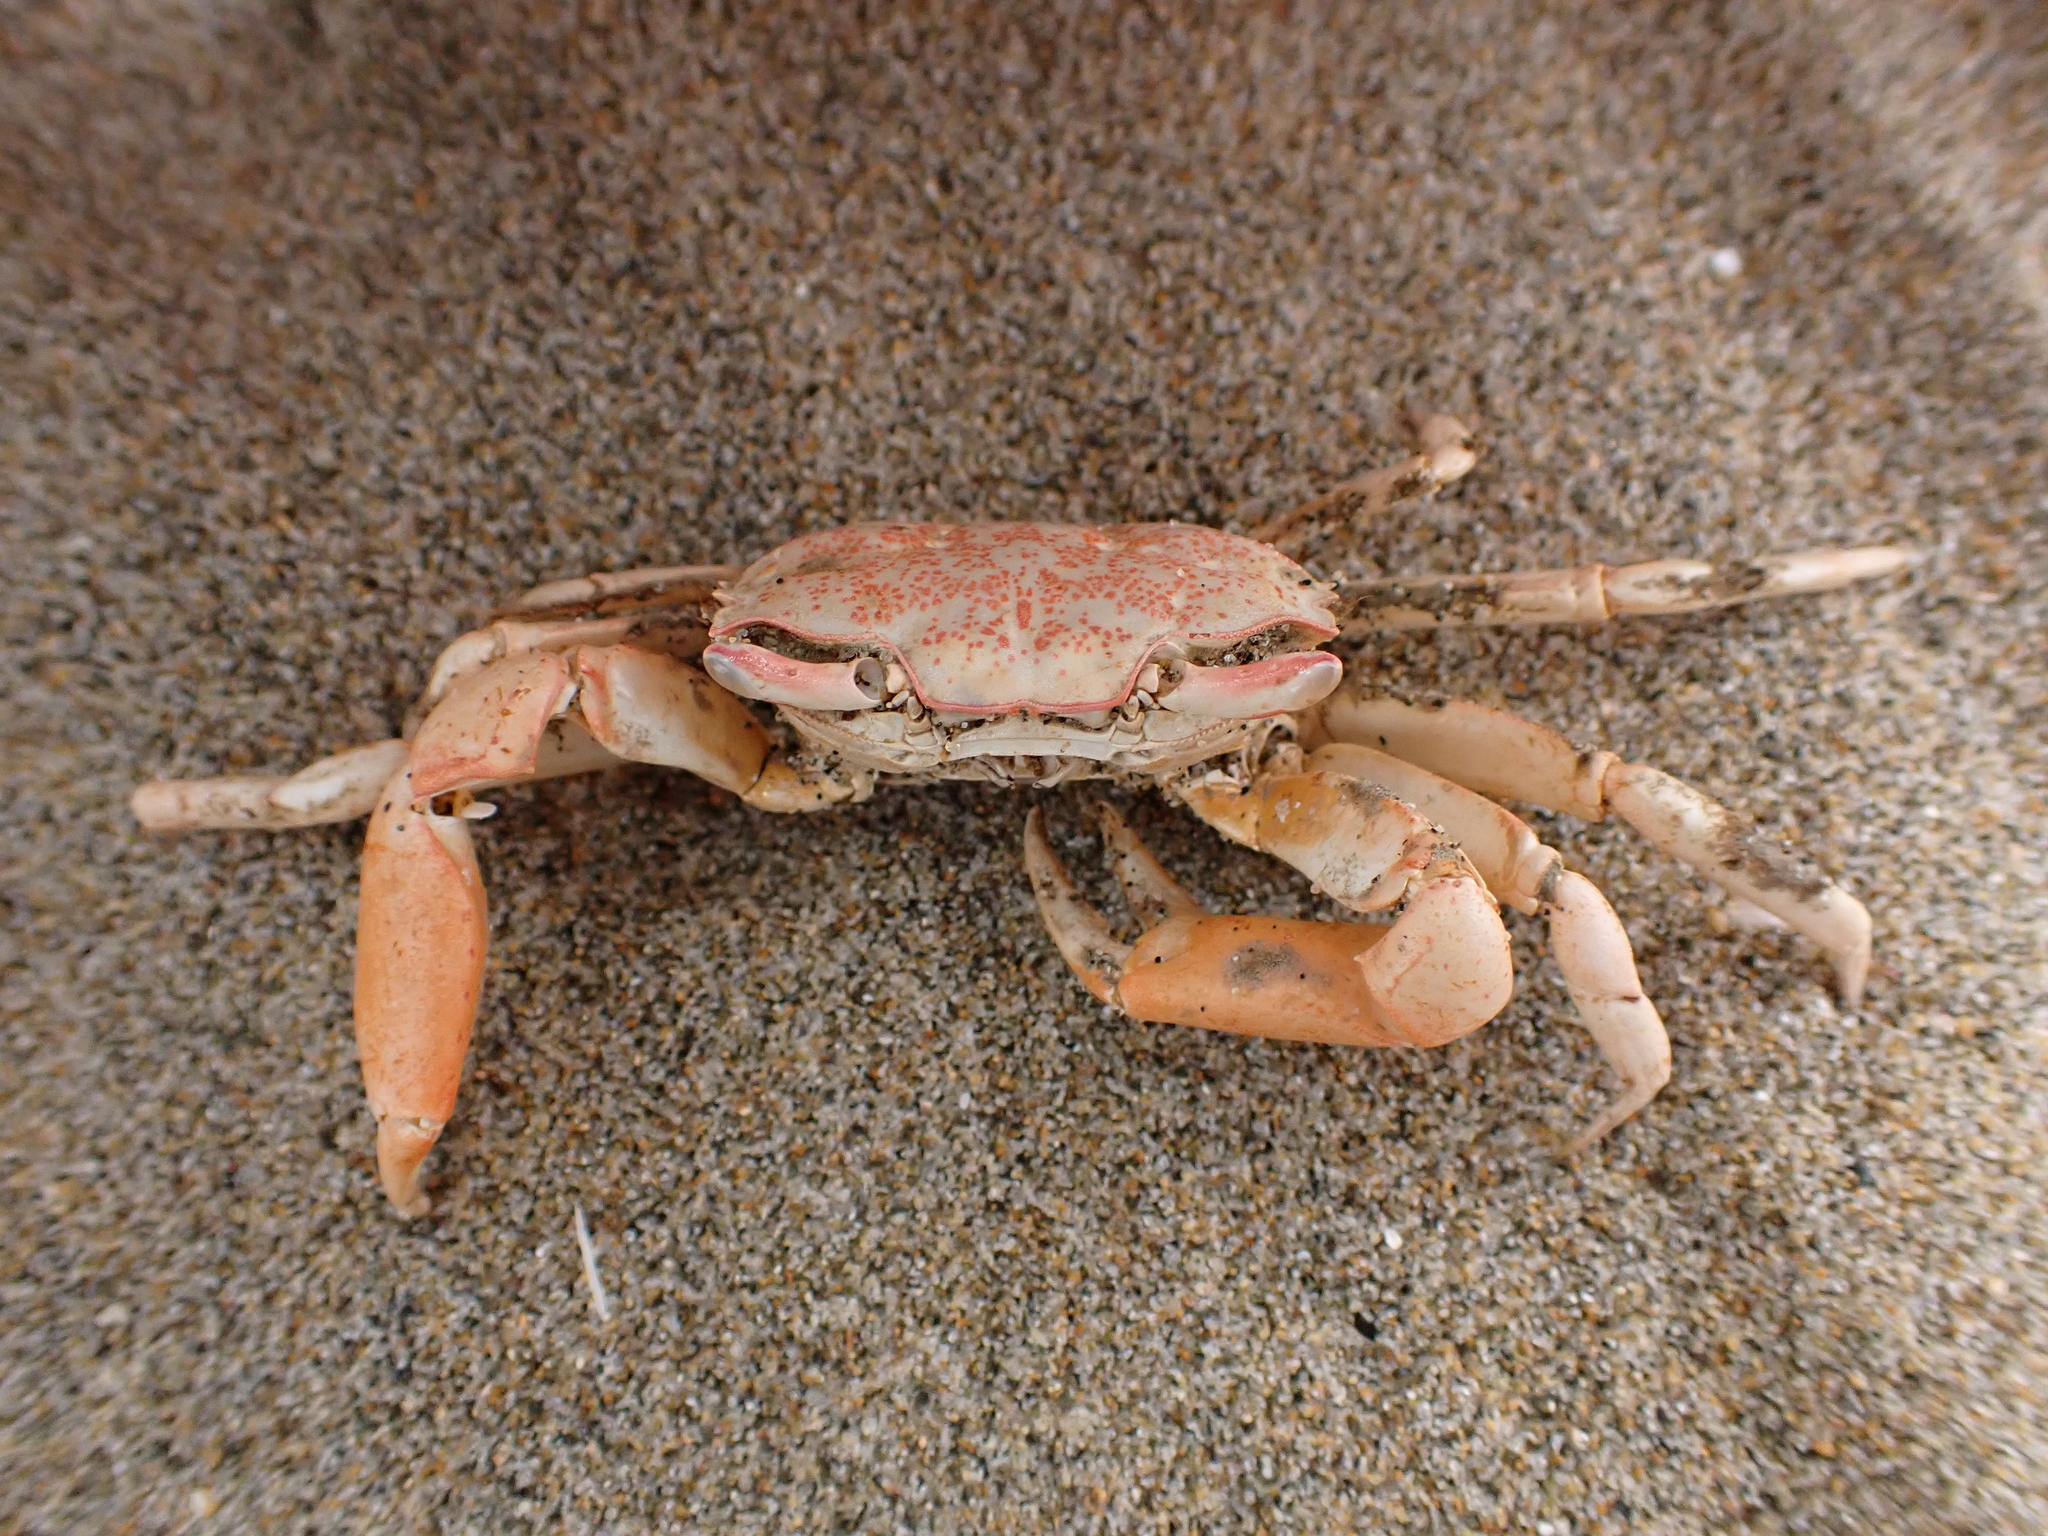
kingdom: Animalia
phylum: Arthropoda
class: Malacostraca
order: Decapoda
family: Macrophthalmidae
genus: Hemiplax
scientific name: Hemiplax hirtipes
